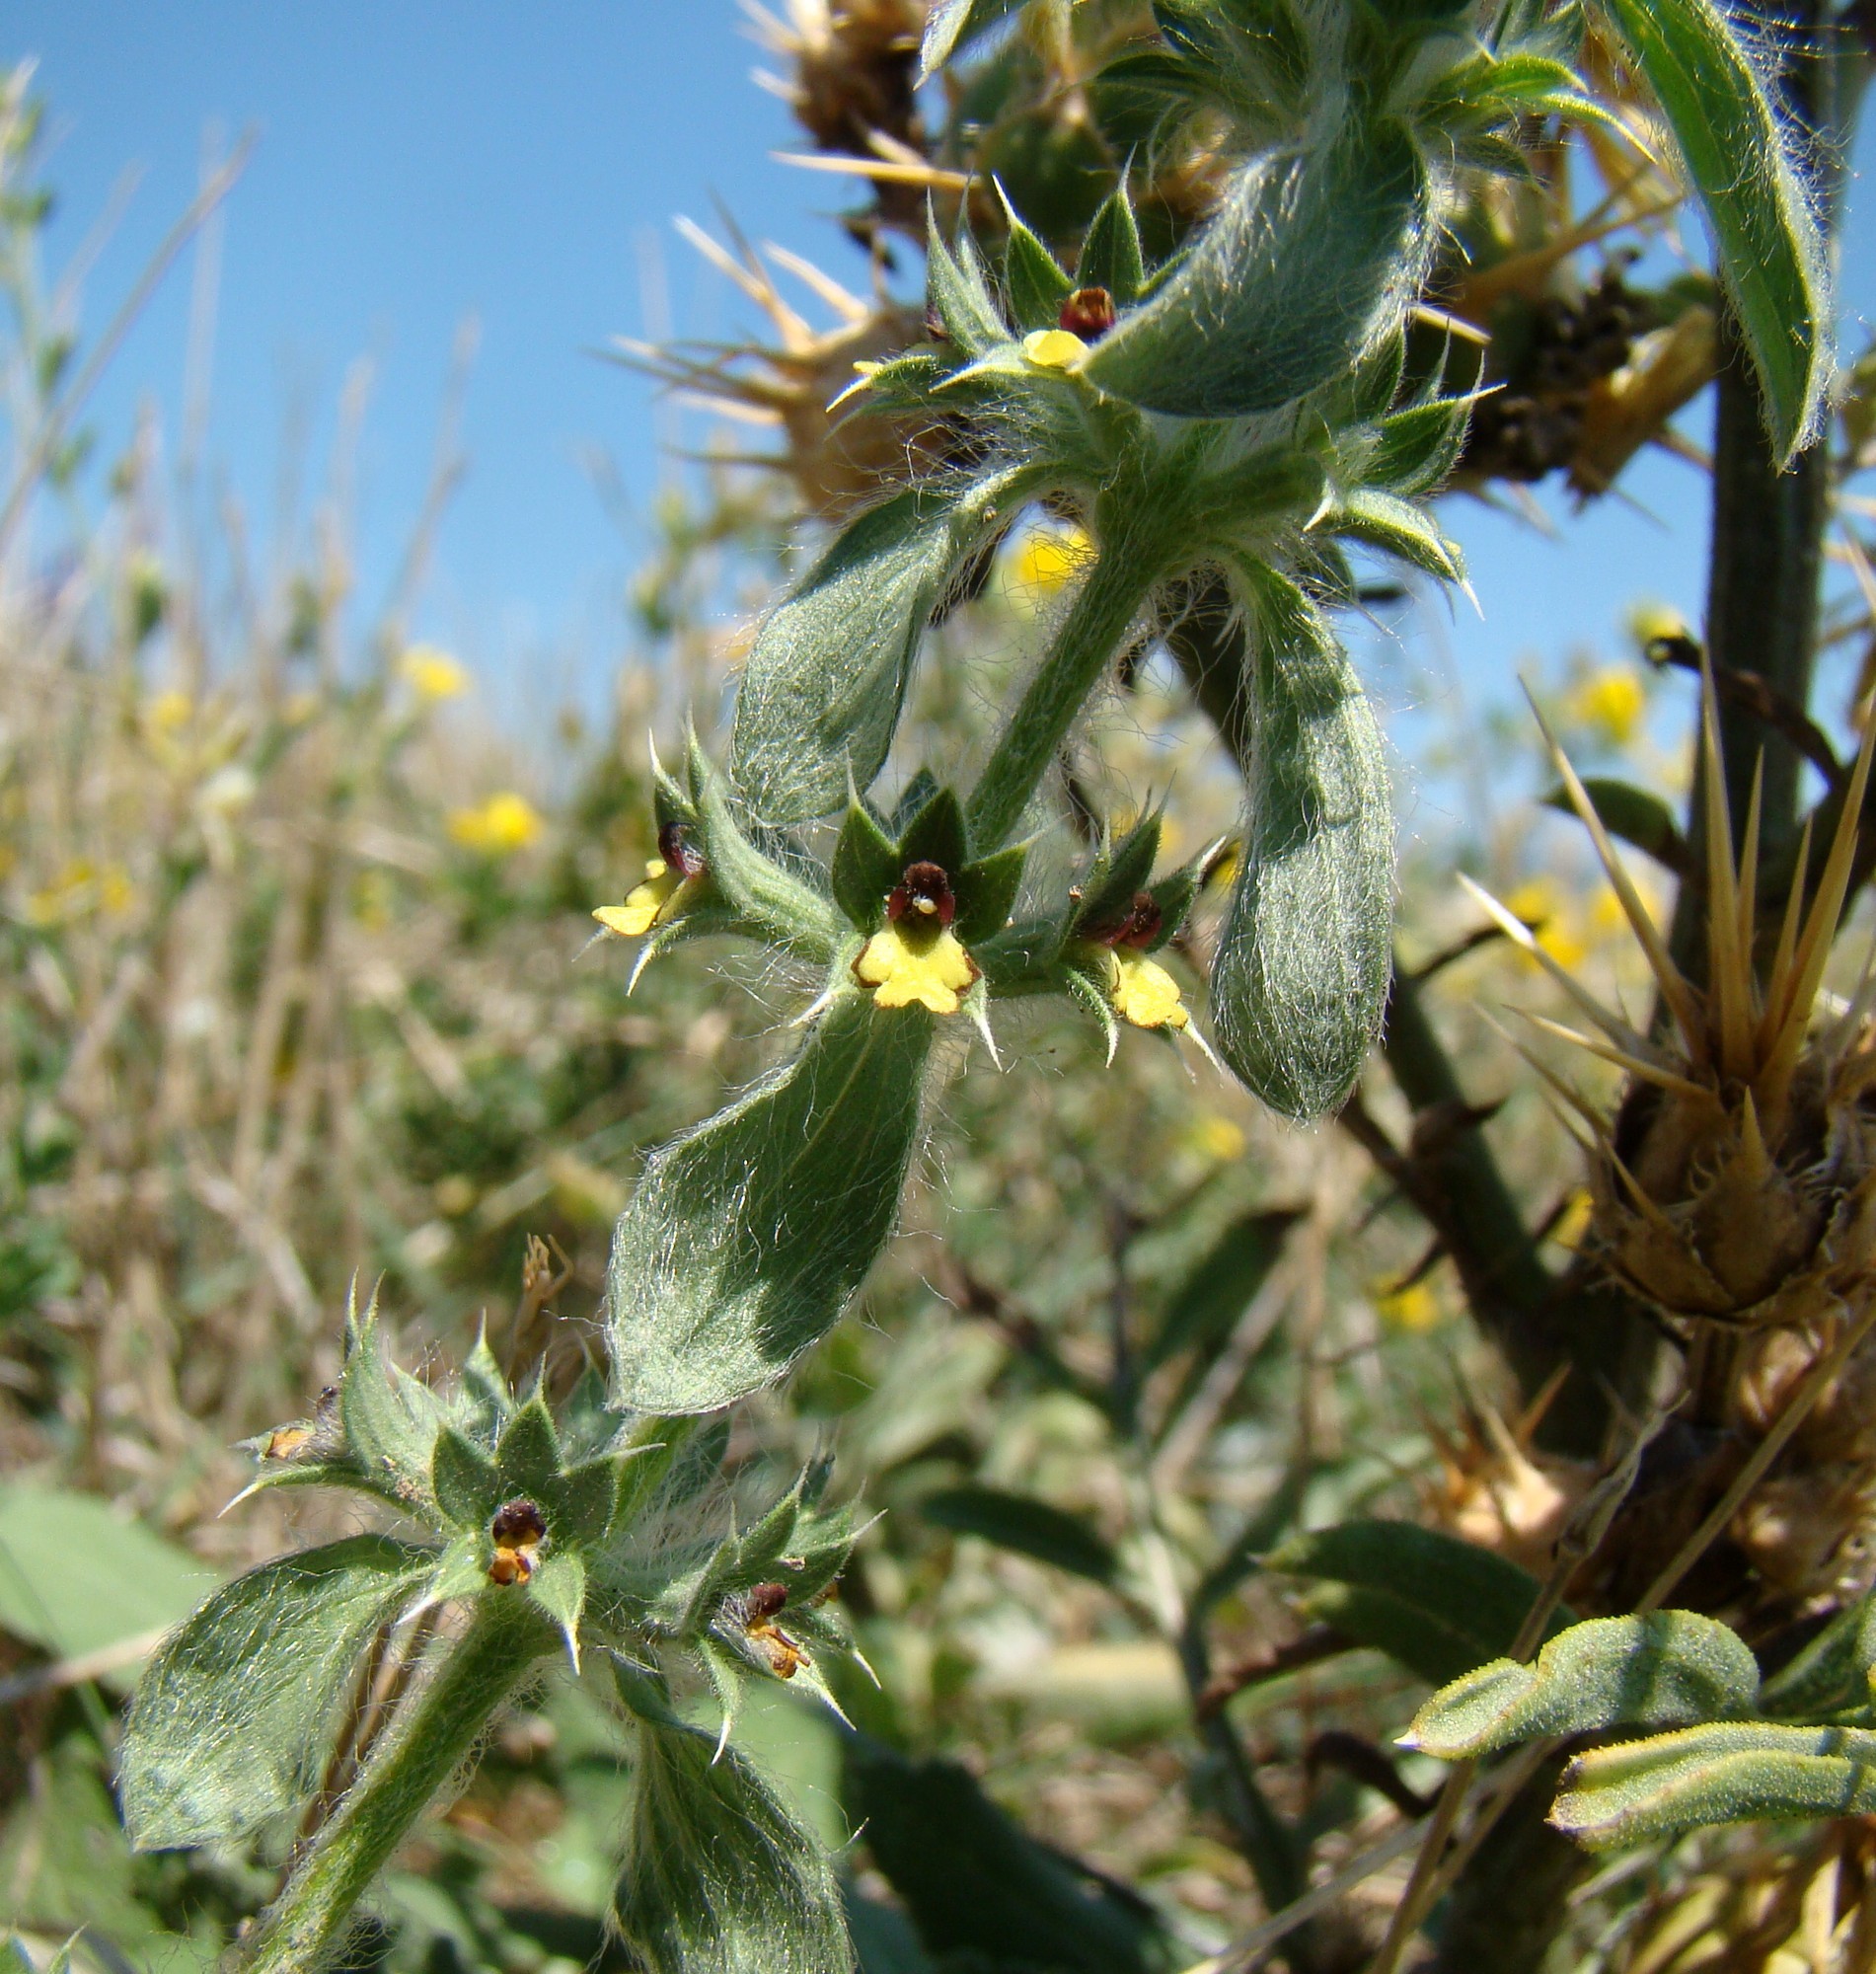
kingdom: Plantae
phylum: Tracheophyta
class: Magnoliopsida
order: Lamiales
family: Lamiaceae
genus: Sideritis
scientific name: Sideritis montana
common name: Mountain ironwort
